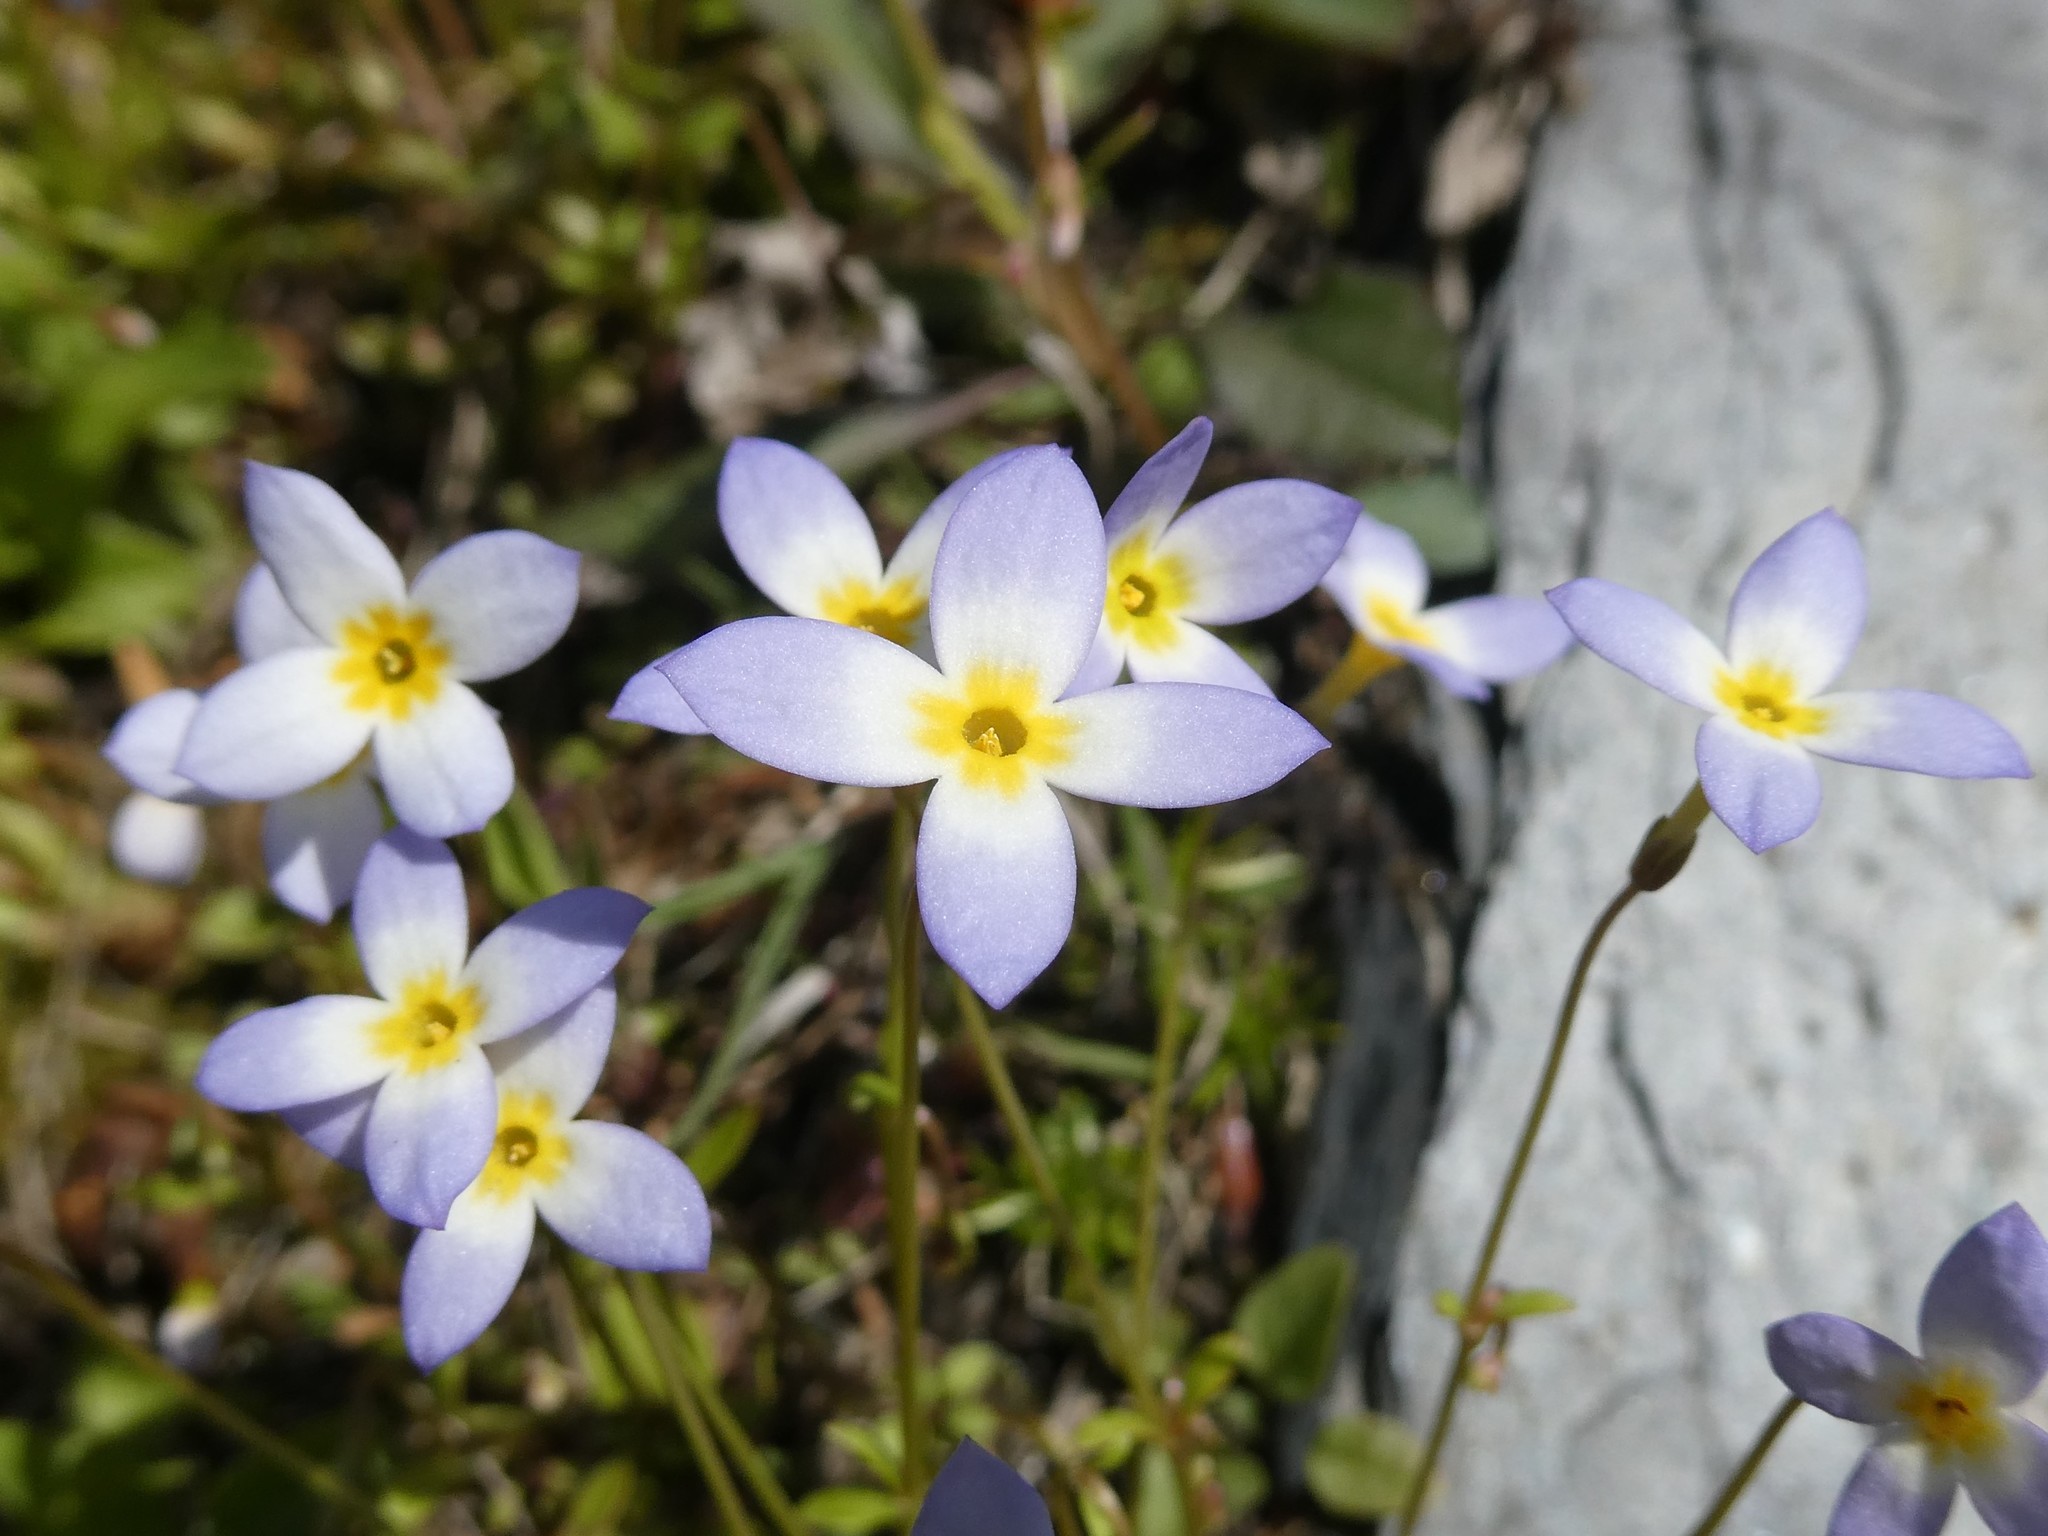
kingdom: Plantae
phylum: Tracheophyta
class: Magnoliopsida
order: Gentianales
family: Rubiaceae
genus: Houstonia
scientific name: Houstonia caerulea
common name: Bluets
